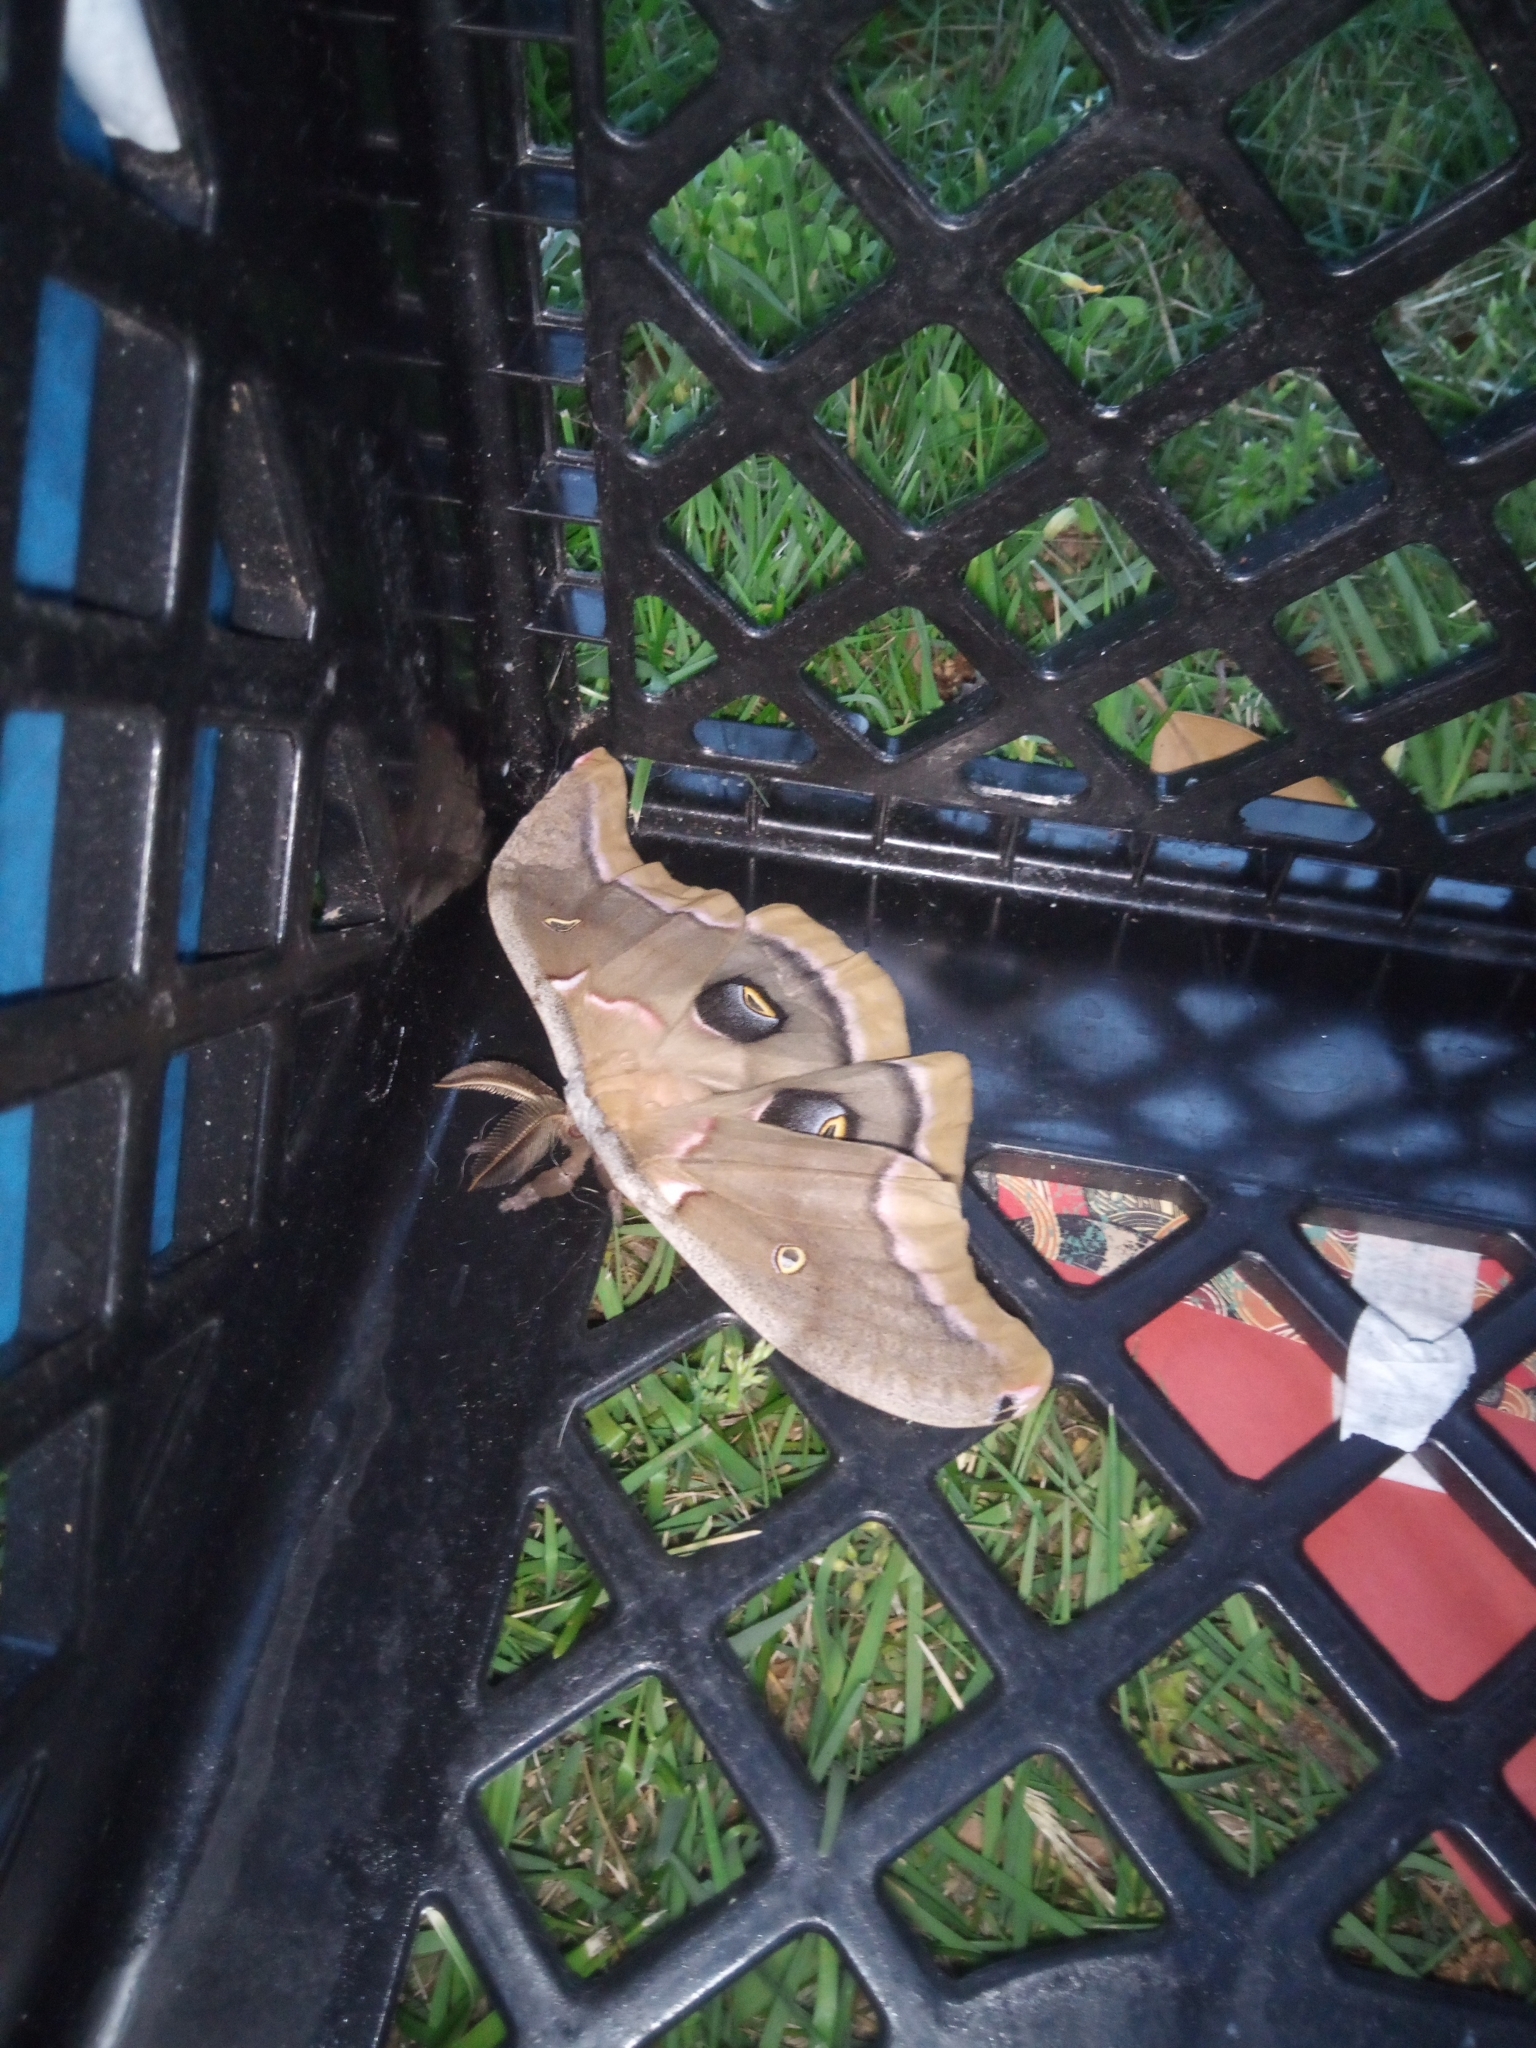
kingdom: Animalia
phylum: Arthropoda
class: Insecta
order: Lepidoptera
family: Saturniidae
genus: Antheraea
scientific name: Antheraea polyphemus
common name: Polyphemus moth
